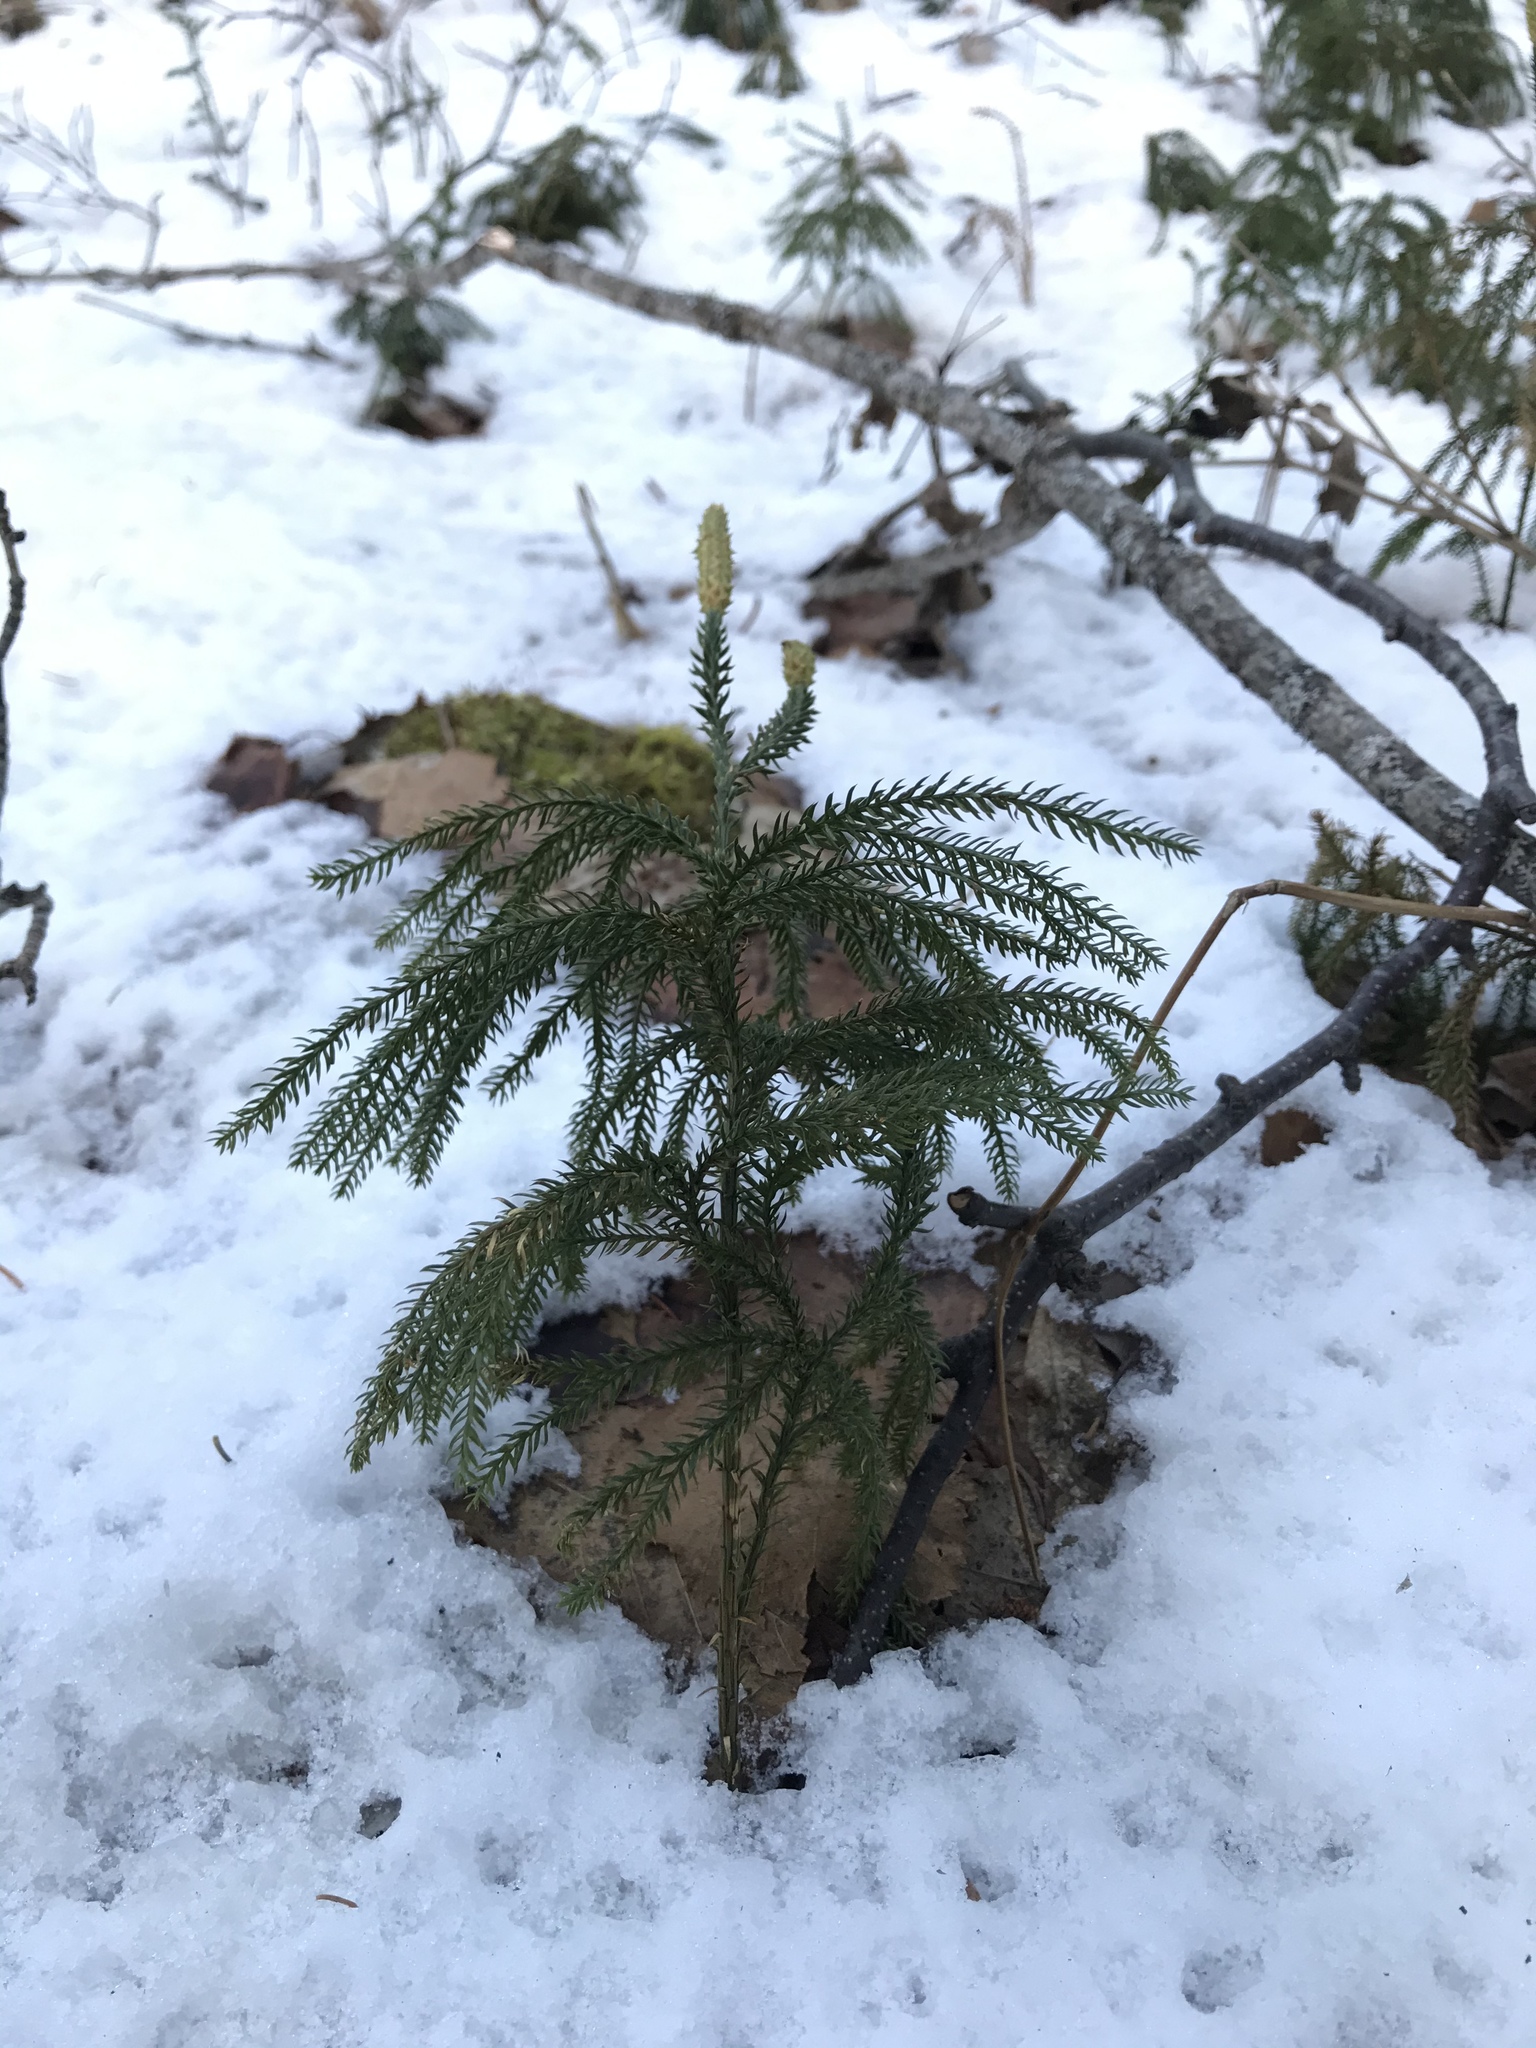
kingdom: Plantae
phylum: Tracheophyta
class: Lycopodiopsida
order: Lycopodiales
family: Lycopodiaceae
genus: Dendrolycopodium
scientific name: Dendrolycopodium dendroideum
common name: Northern tree-clubmoss
